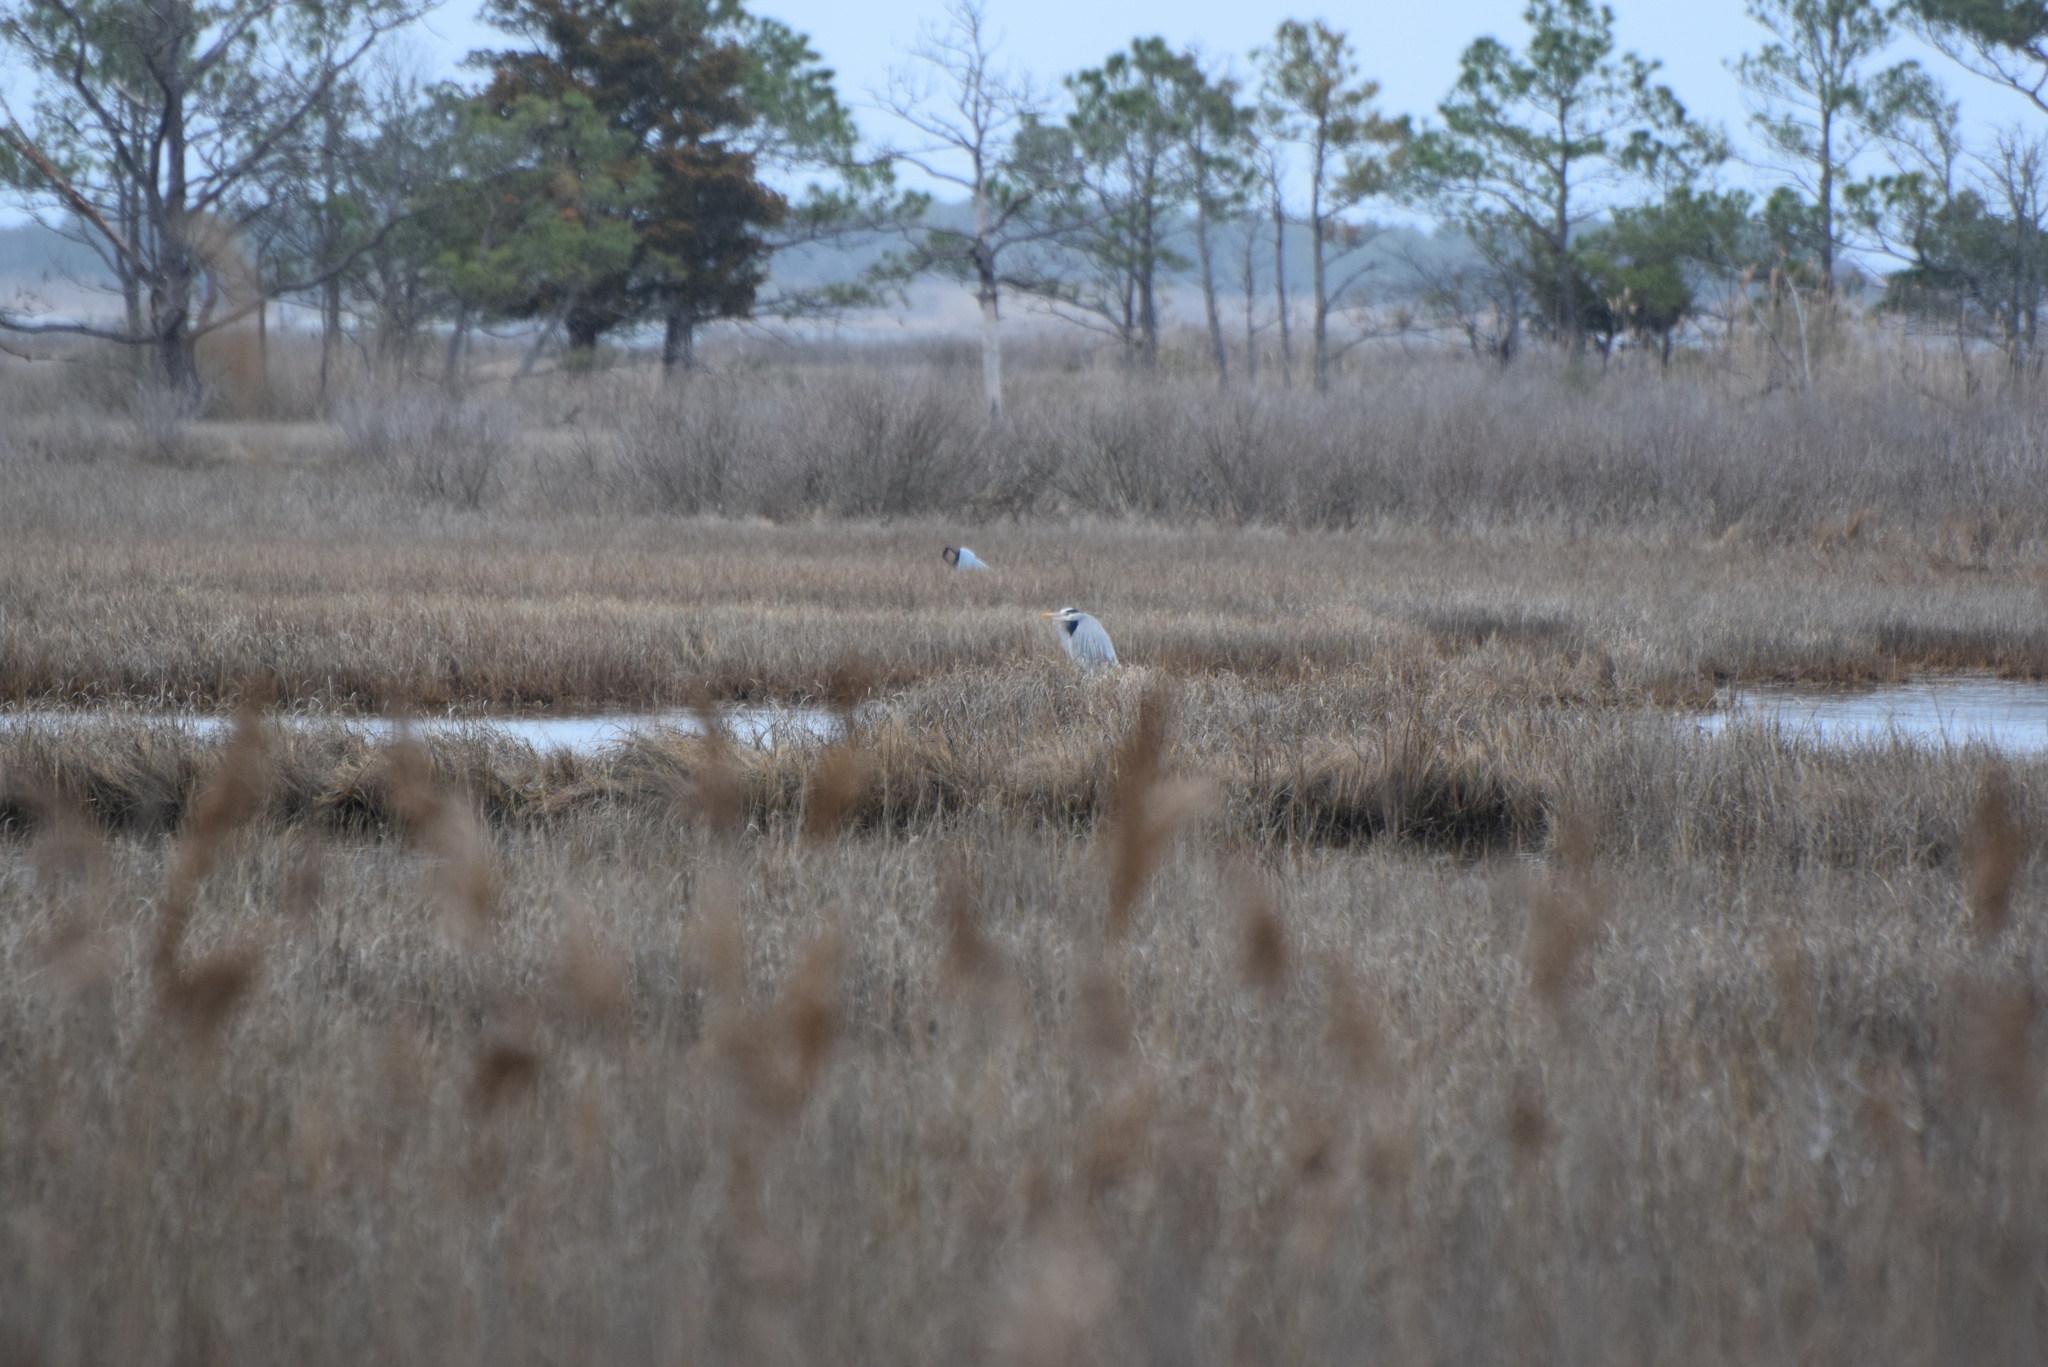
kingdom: Animalia
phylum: Chordata
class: Aves
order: Pelecaniformes
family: Ardeidae
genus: Ardea
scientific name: Ardea herodias
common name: Great blue heron
